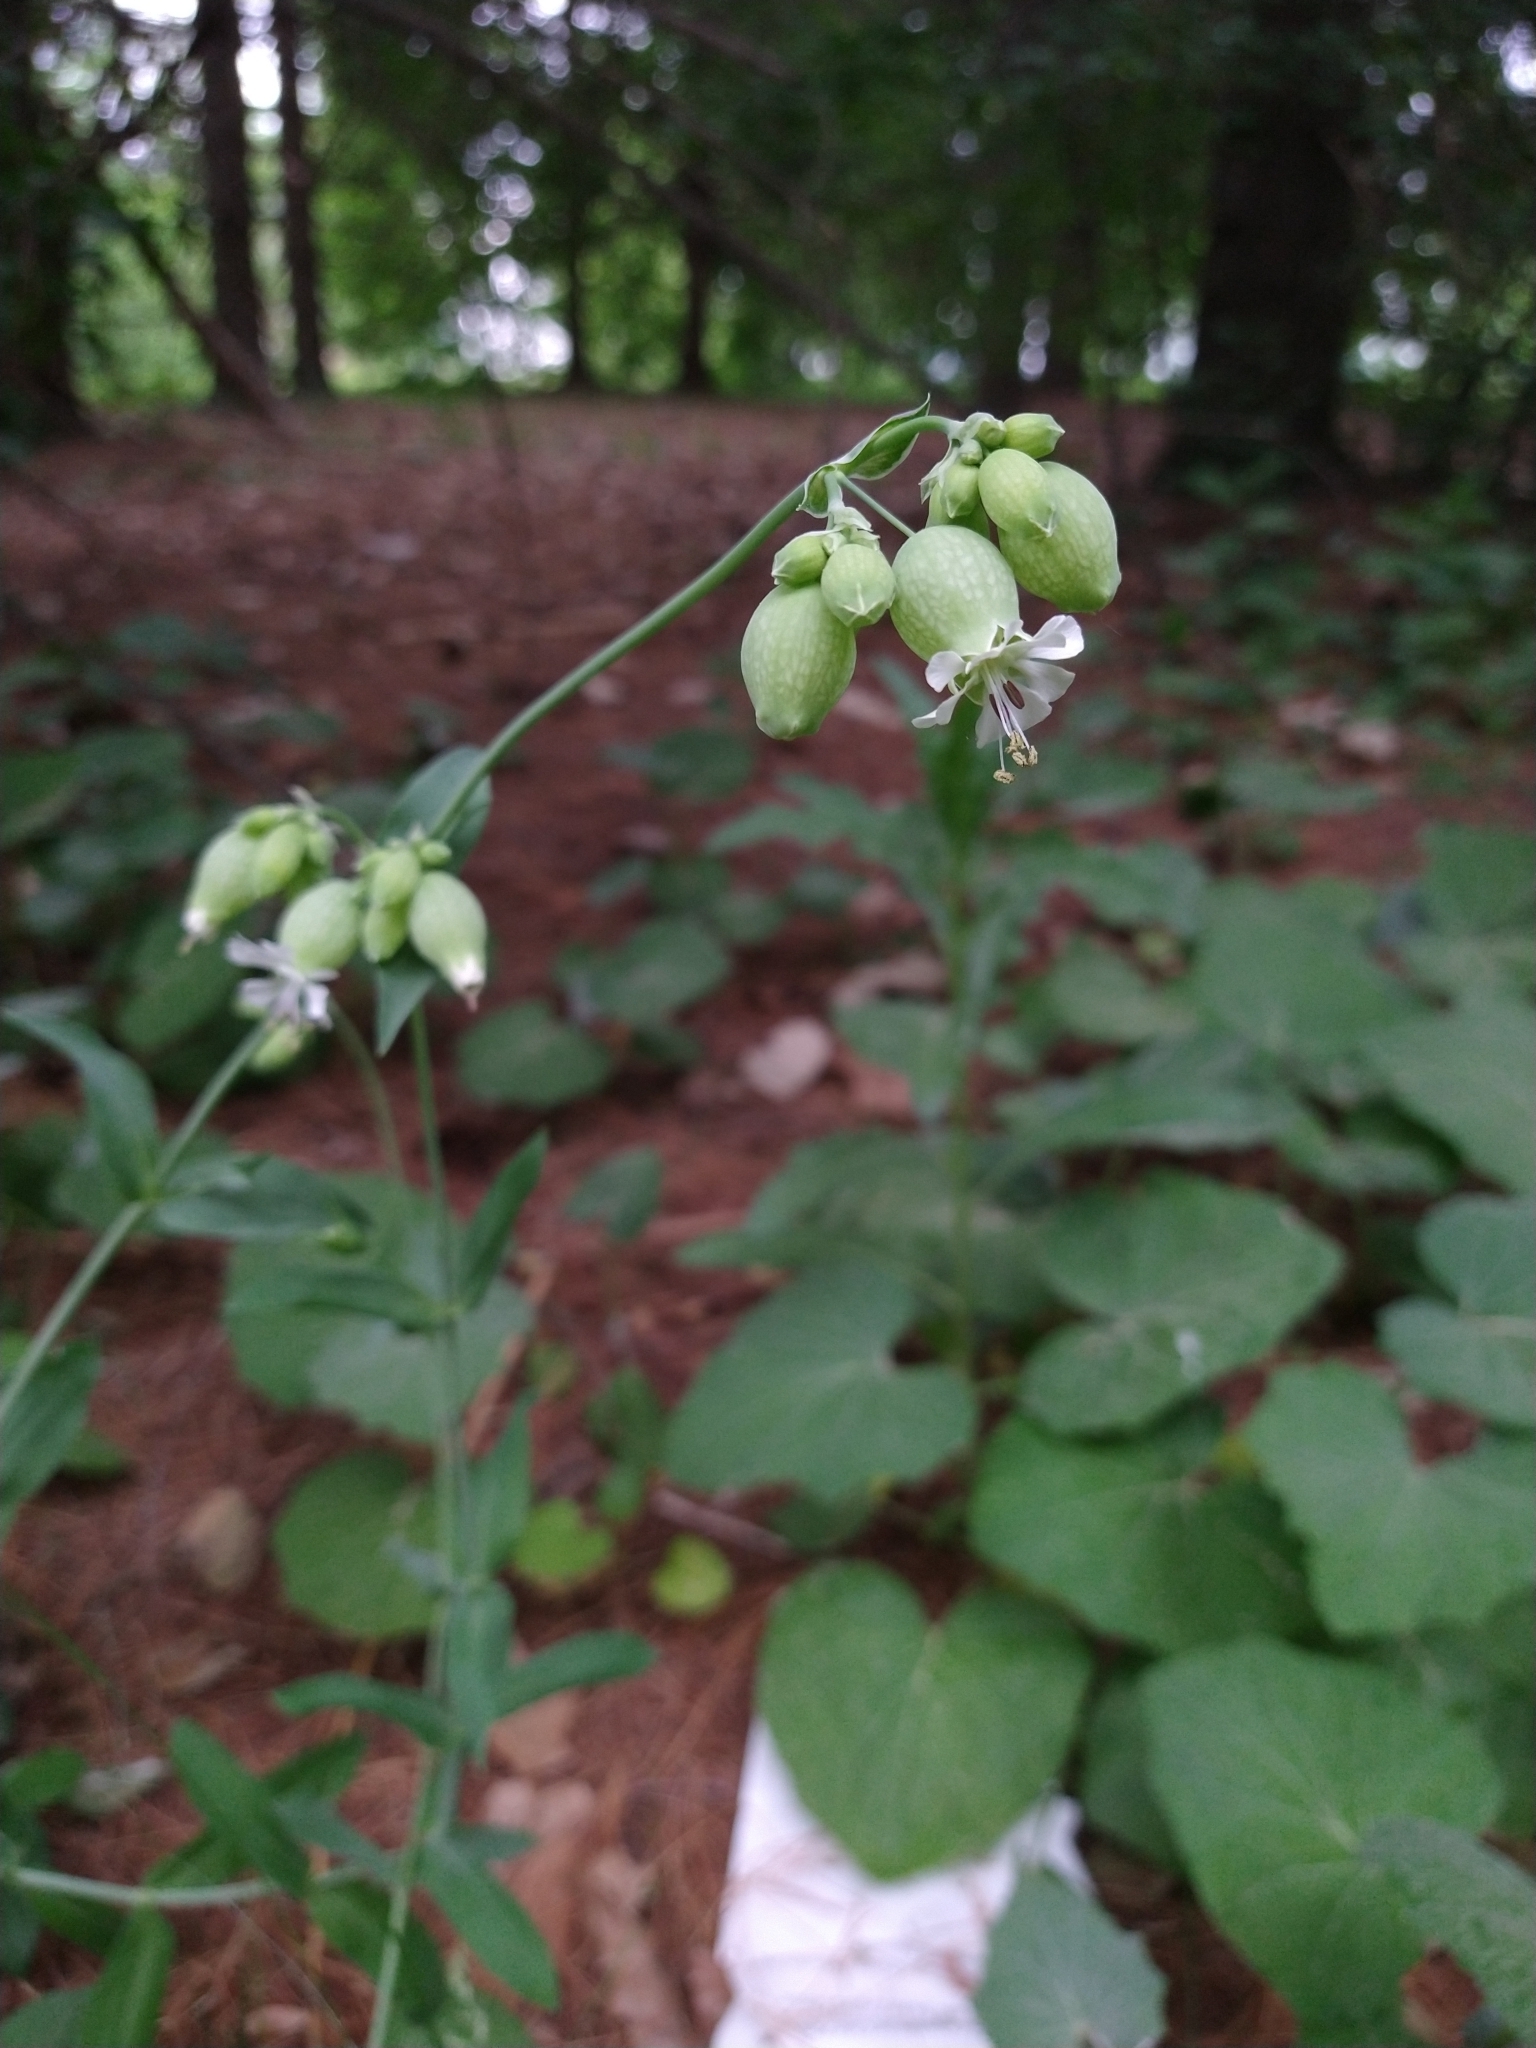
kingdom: Plantae
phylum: Tracheophyta
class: Magnoliopsida
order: Caryophyllales
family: Caryophyllaceae
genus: Silene
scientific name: Silene vulgaris
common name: Bladder campion
